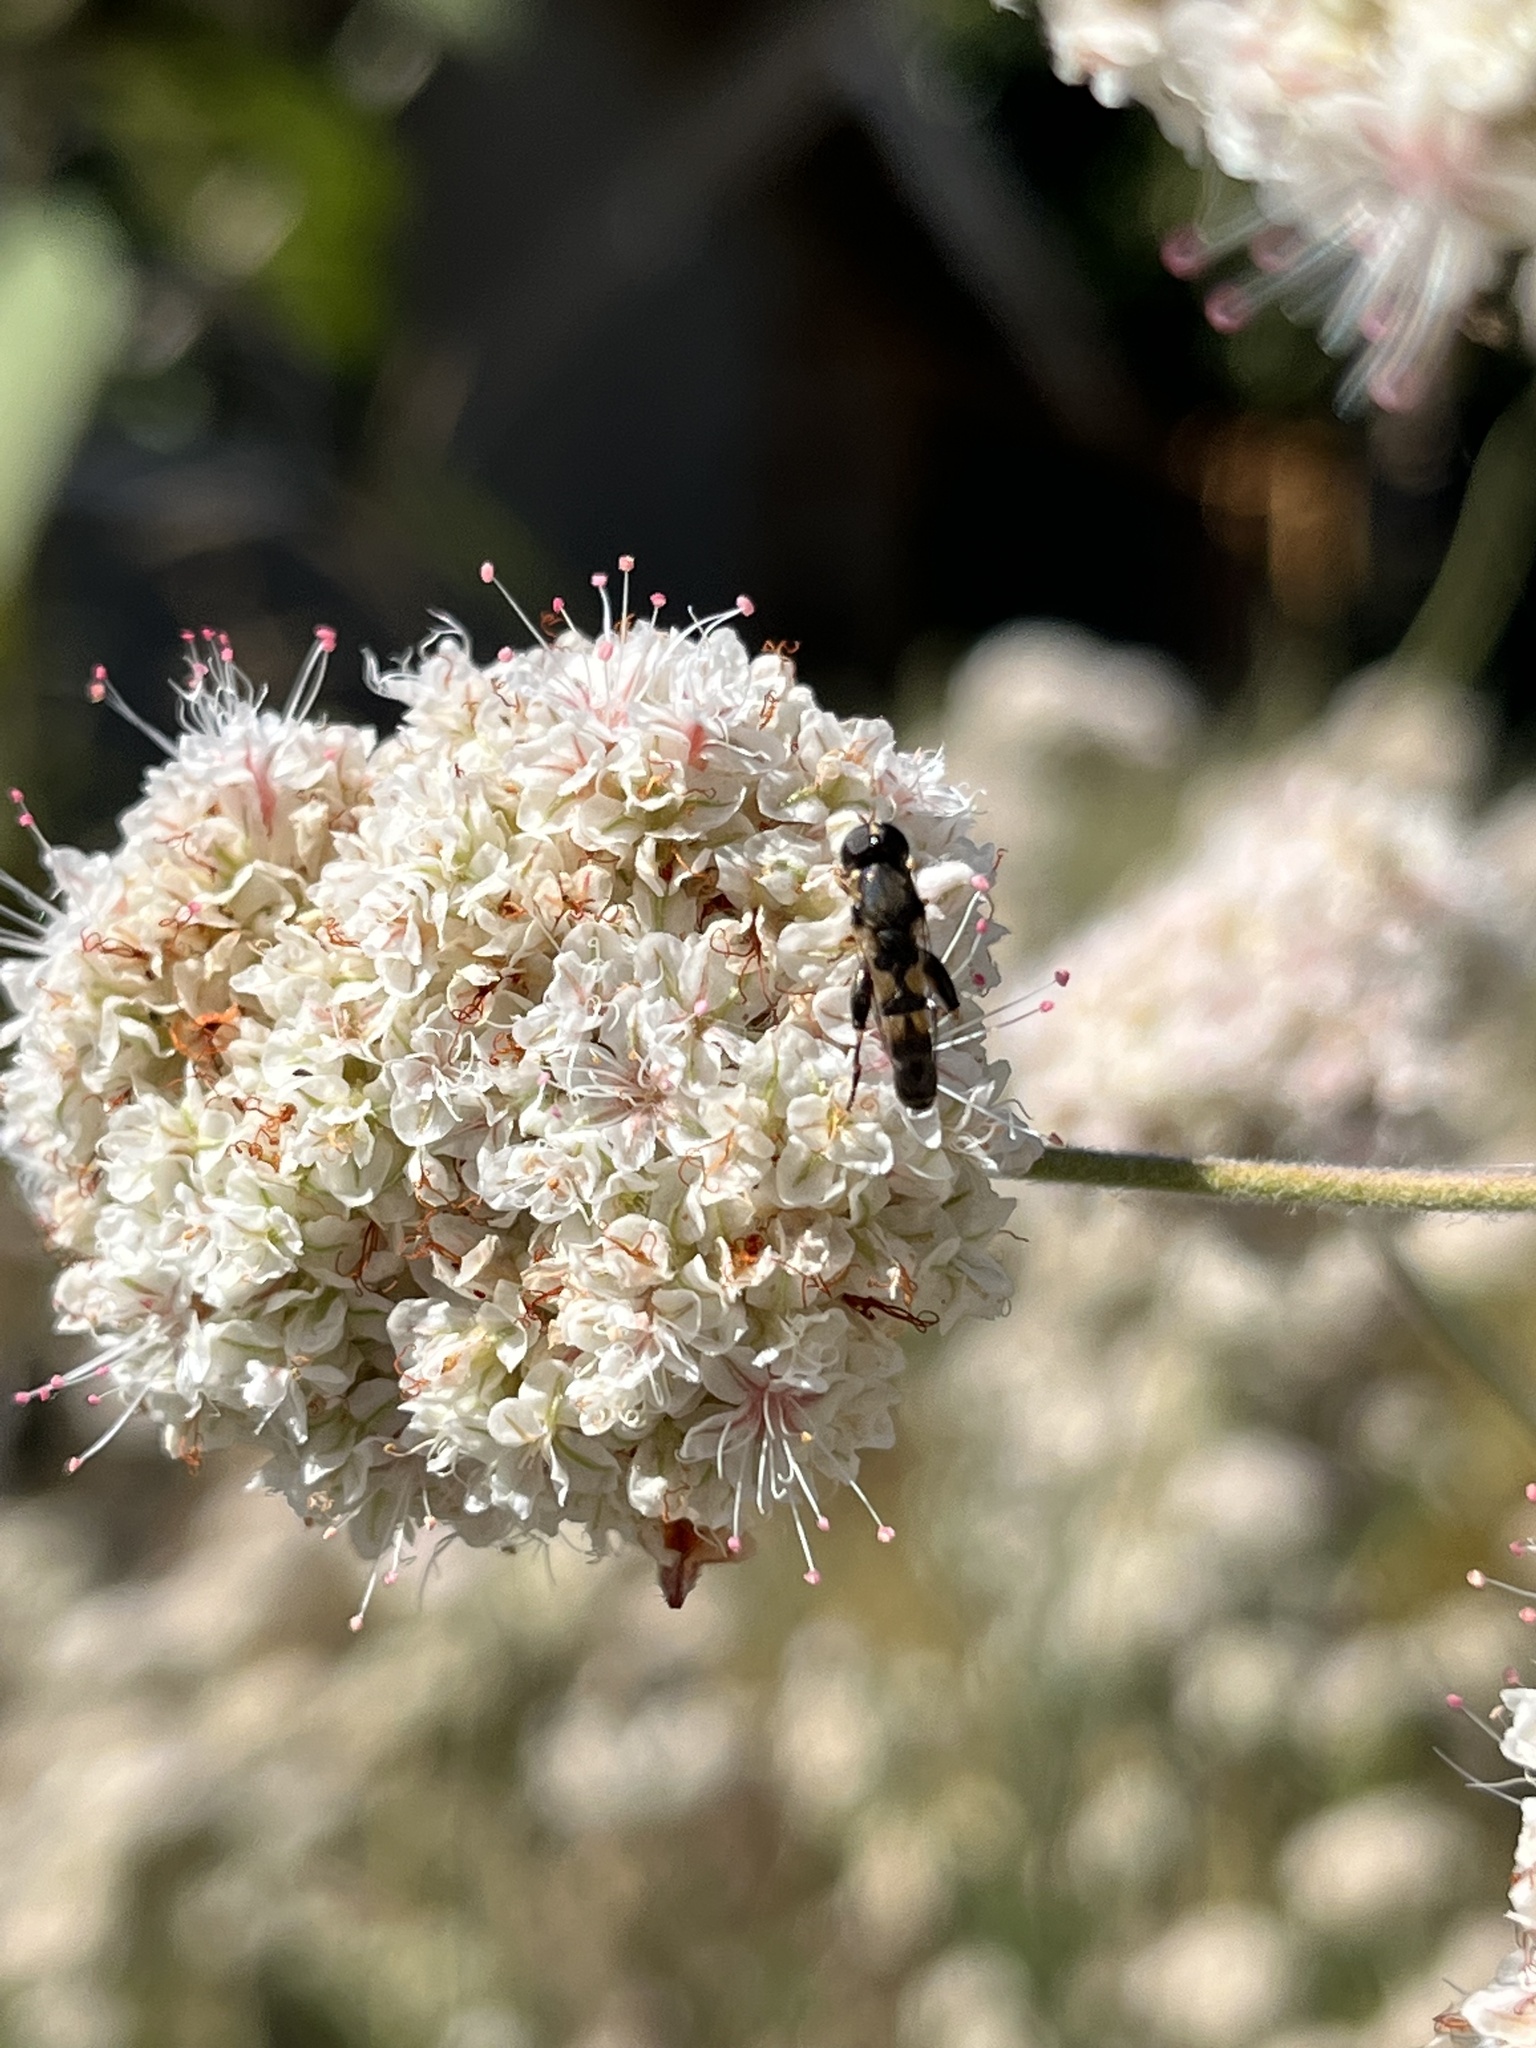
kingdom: Animalia
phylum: Arthropoda
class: Insecta
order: Diptera
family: Syrphidae
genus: Syritta
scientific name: Syritta pipiens
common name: Hover fly
